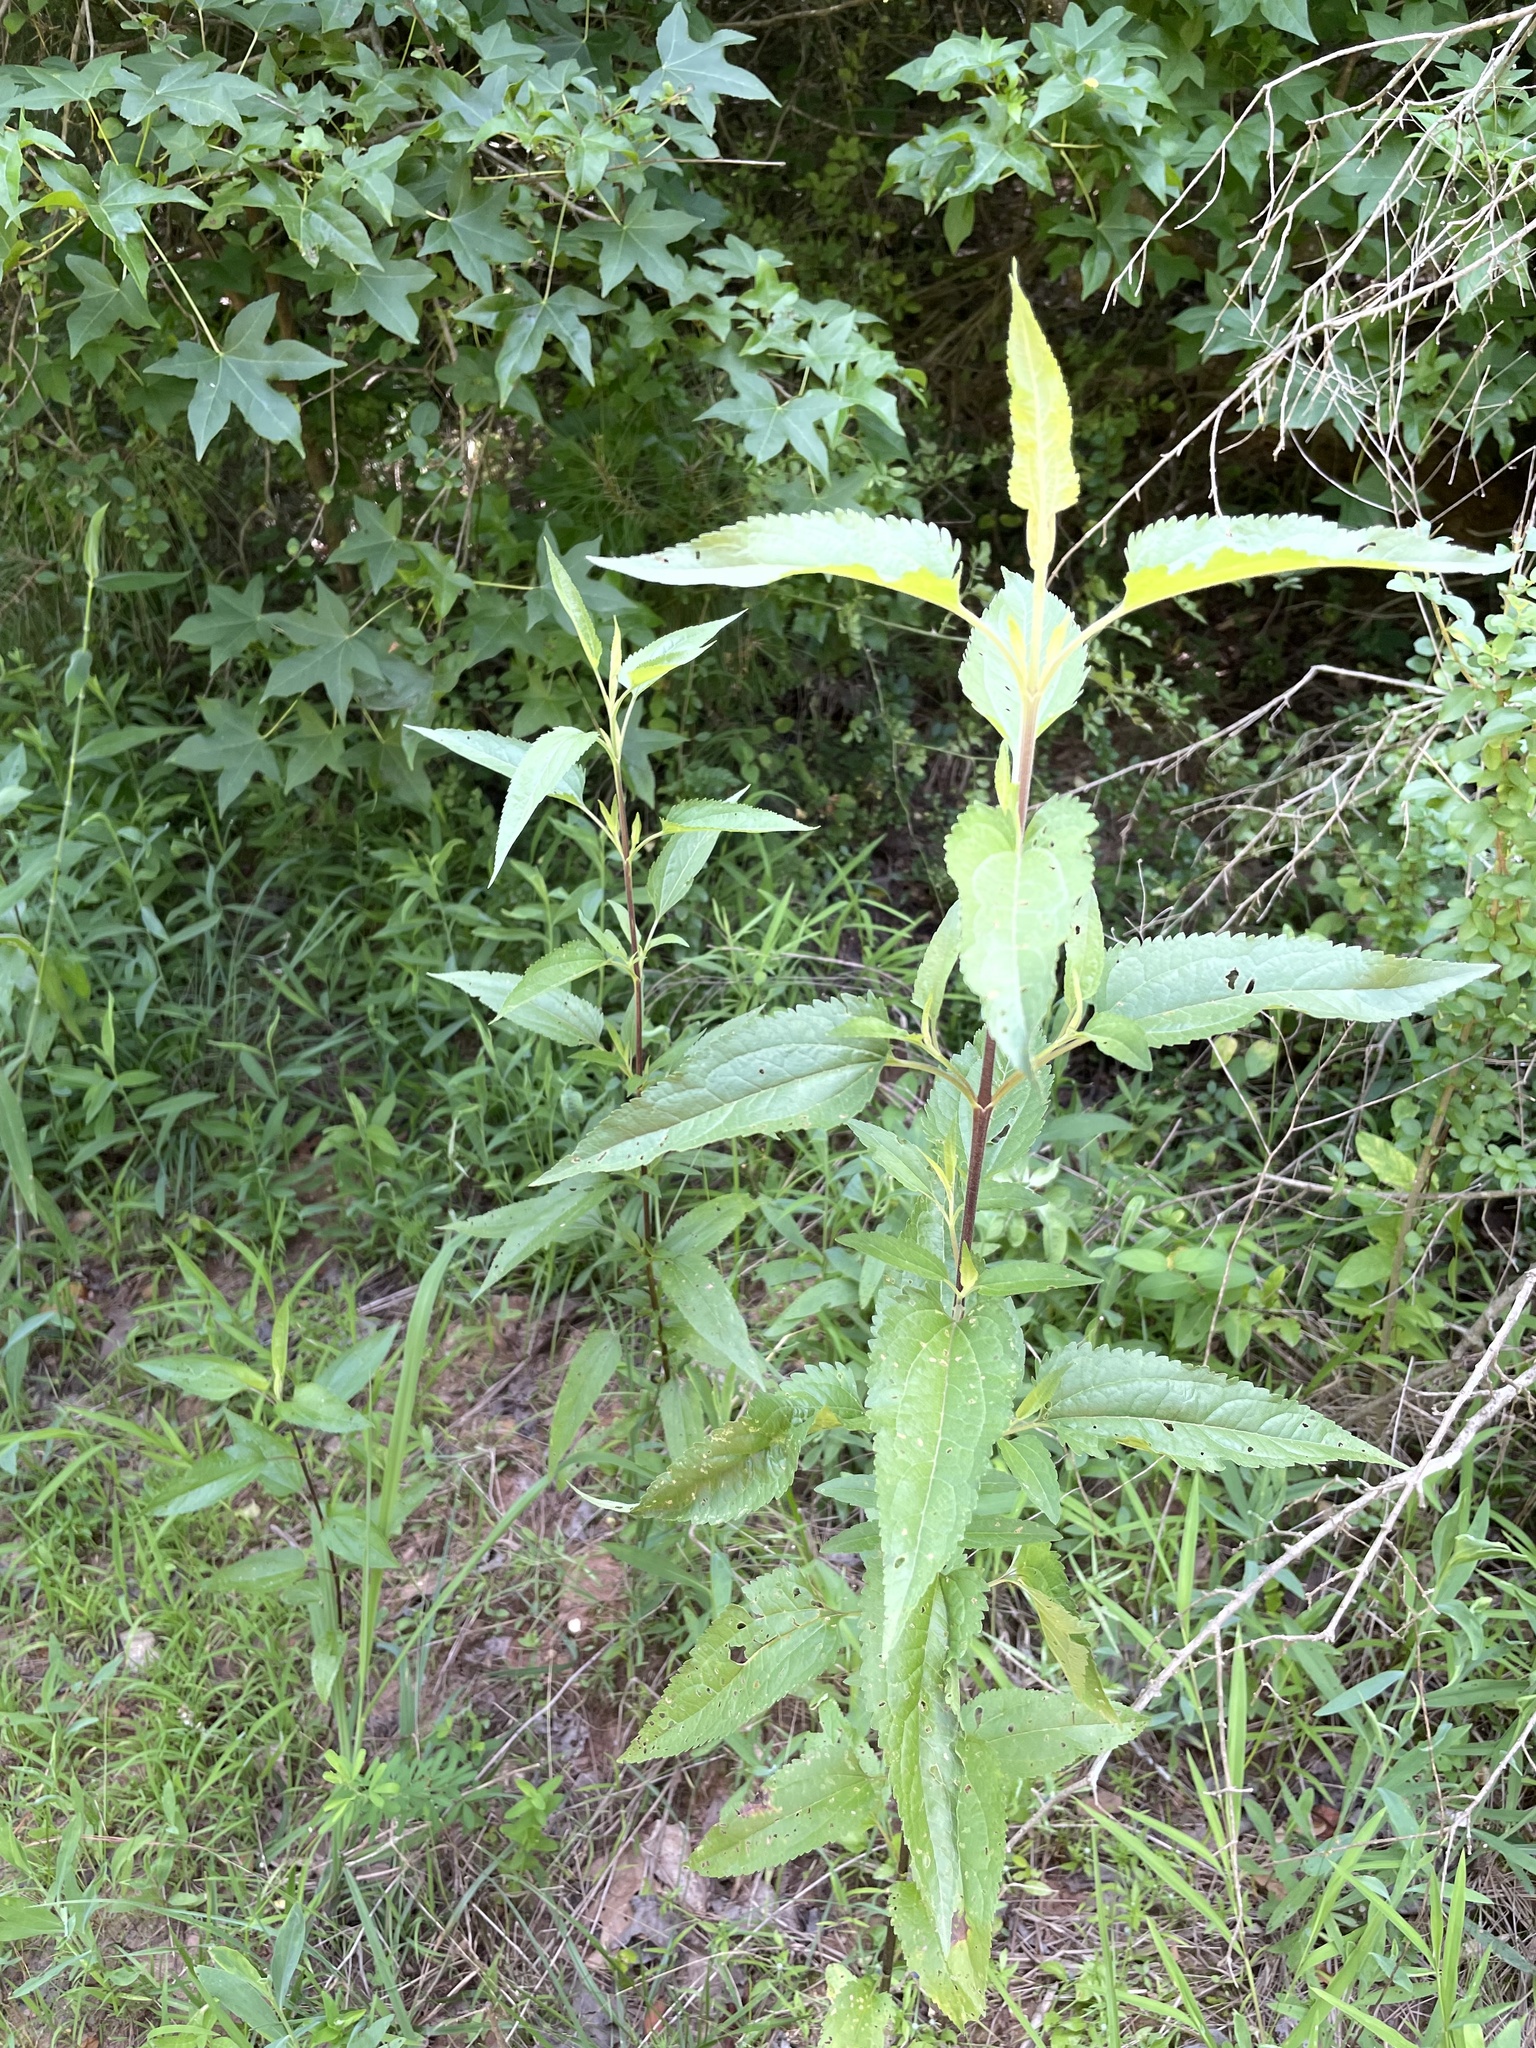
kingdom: Plantae
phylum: Tracheophyta
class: Magnoliopsida
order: Asterales
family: Asteraceae
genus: Eupatorium
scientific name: Eupatorium serotinum
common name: Late boneset
